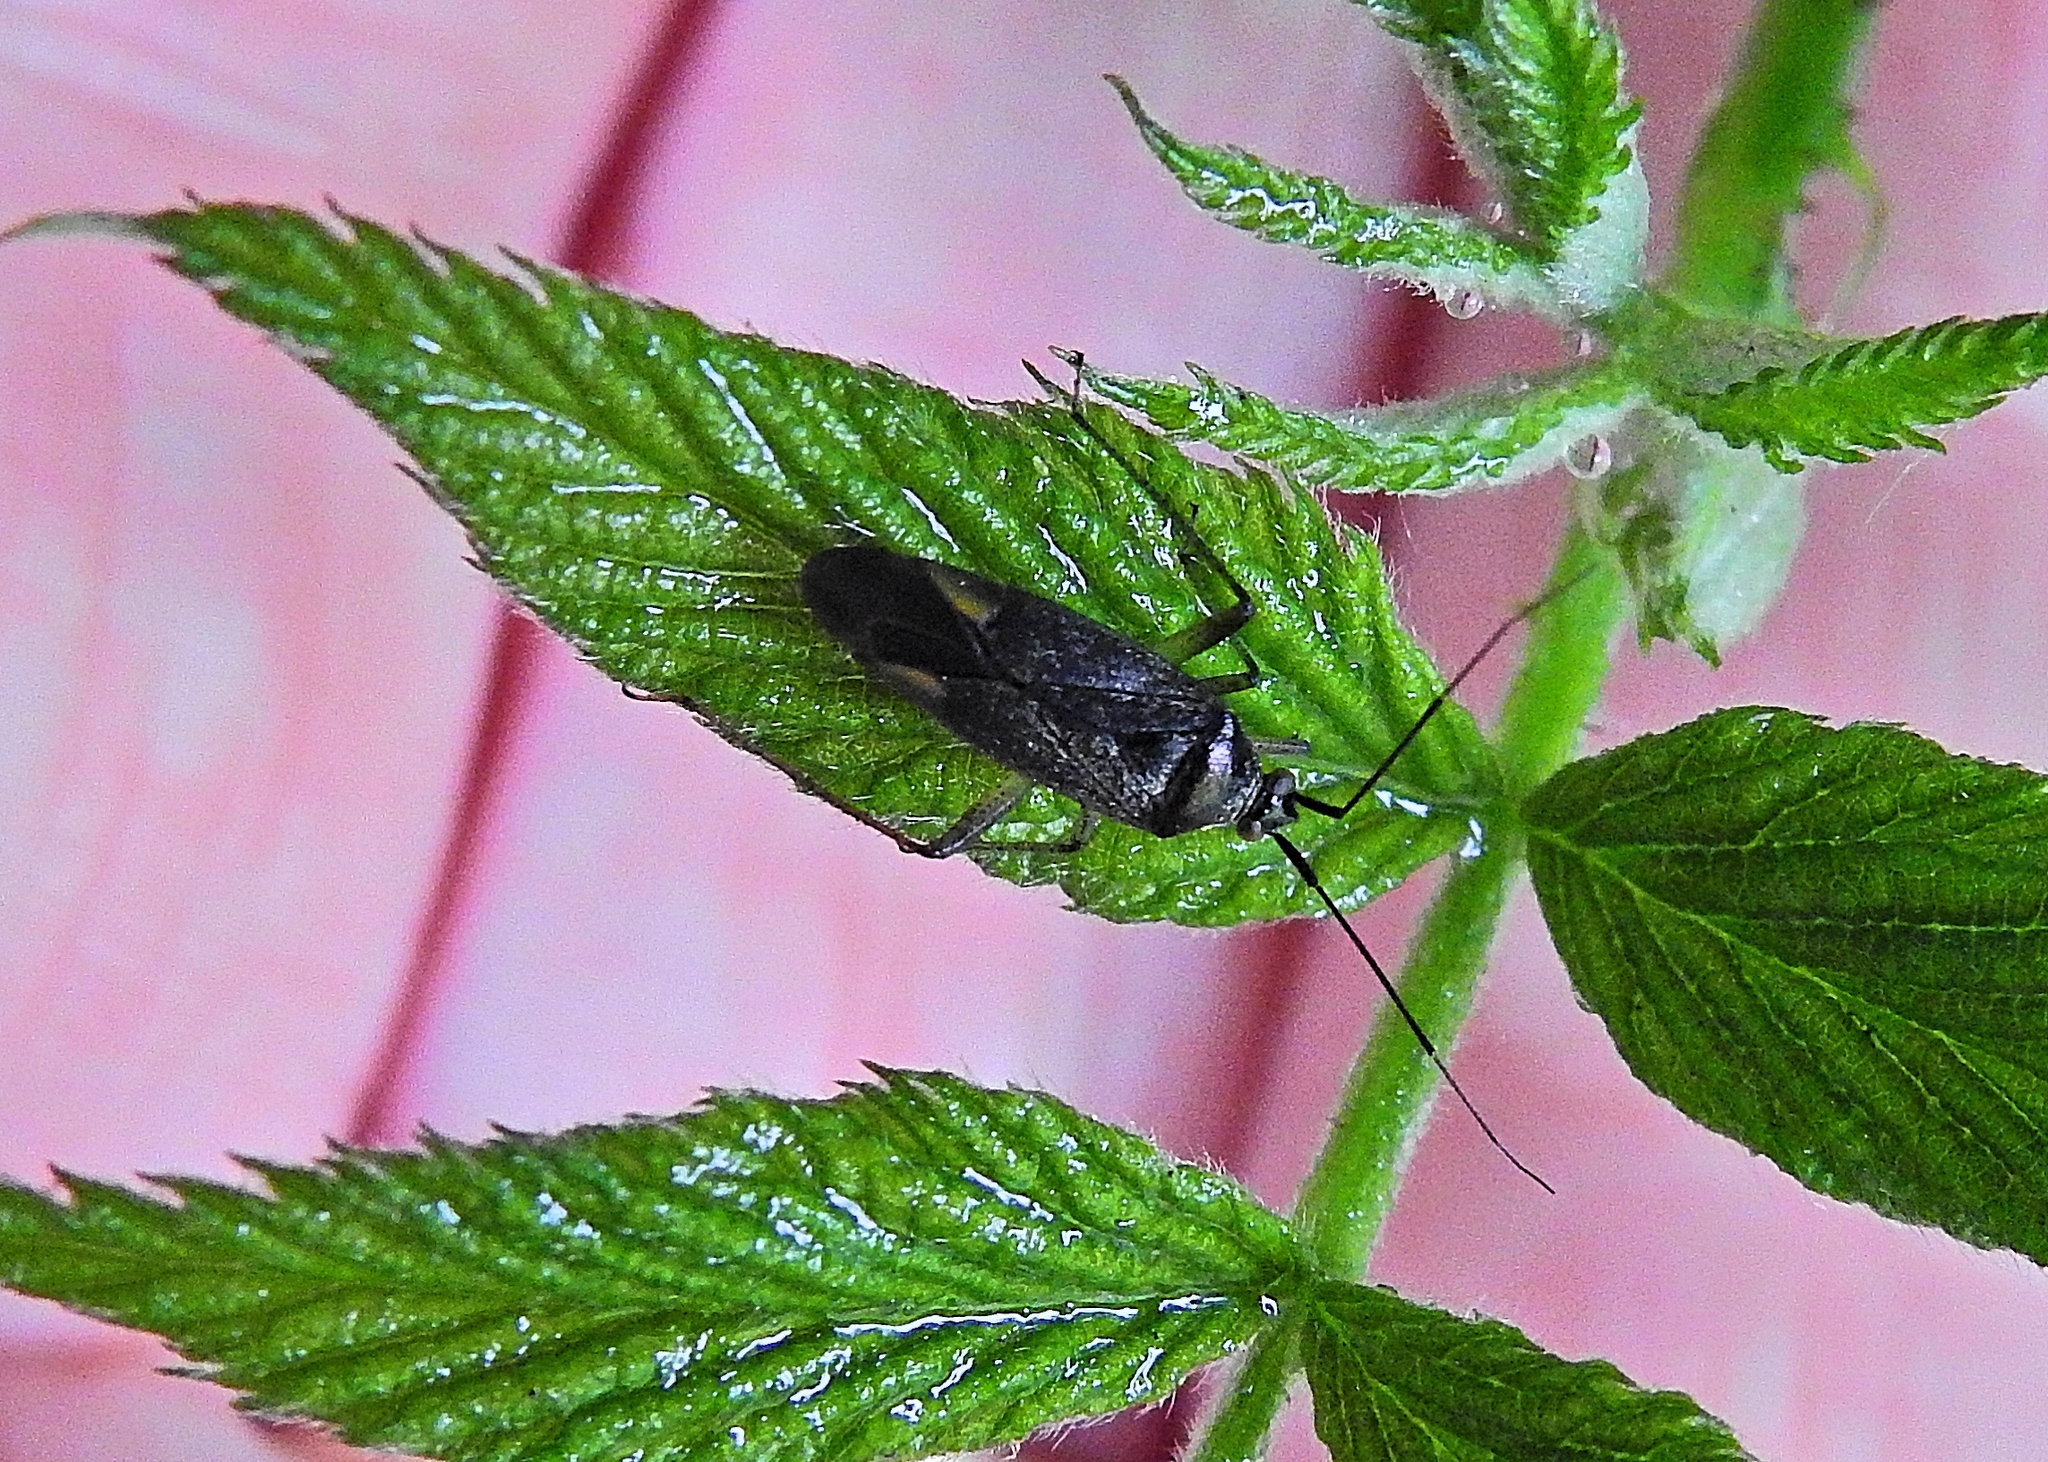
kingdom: Animalia
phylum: Arthropoda
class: Insecta
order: Hemiptera
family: Miridae
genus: Closterotomus
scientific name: Closterotomus trivialis
